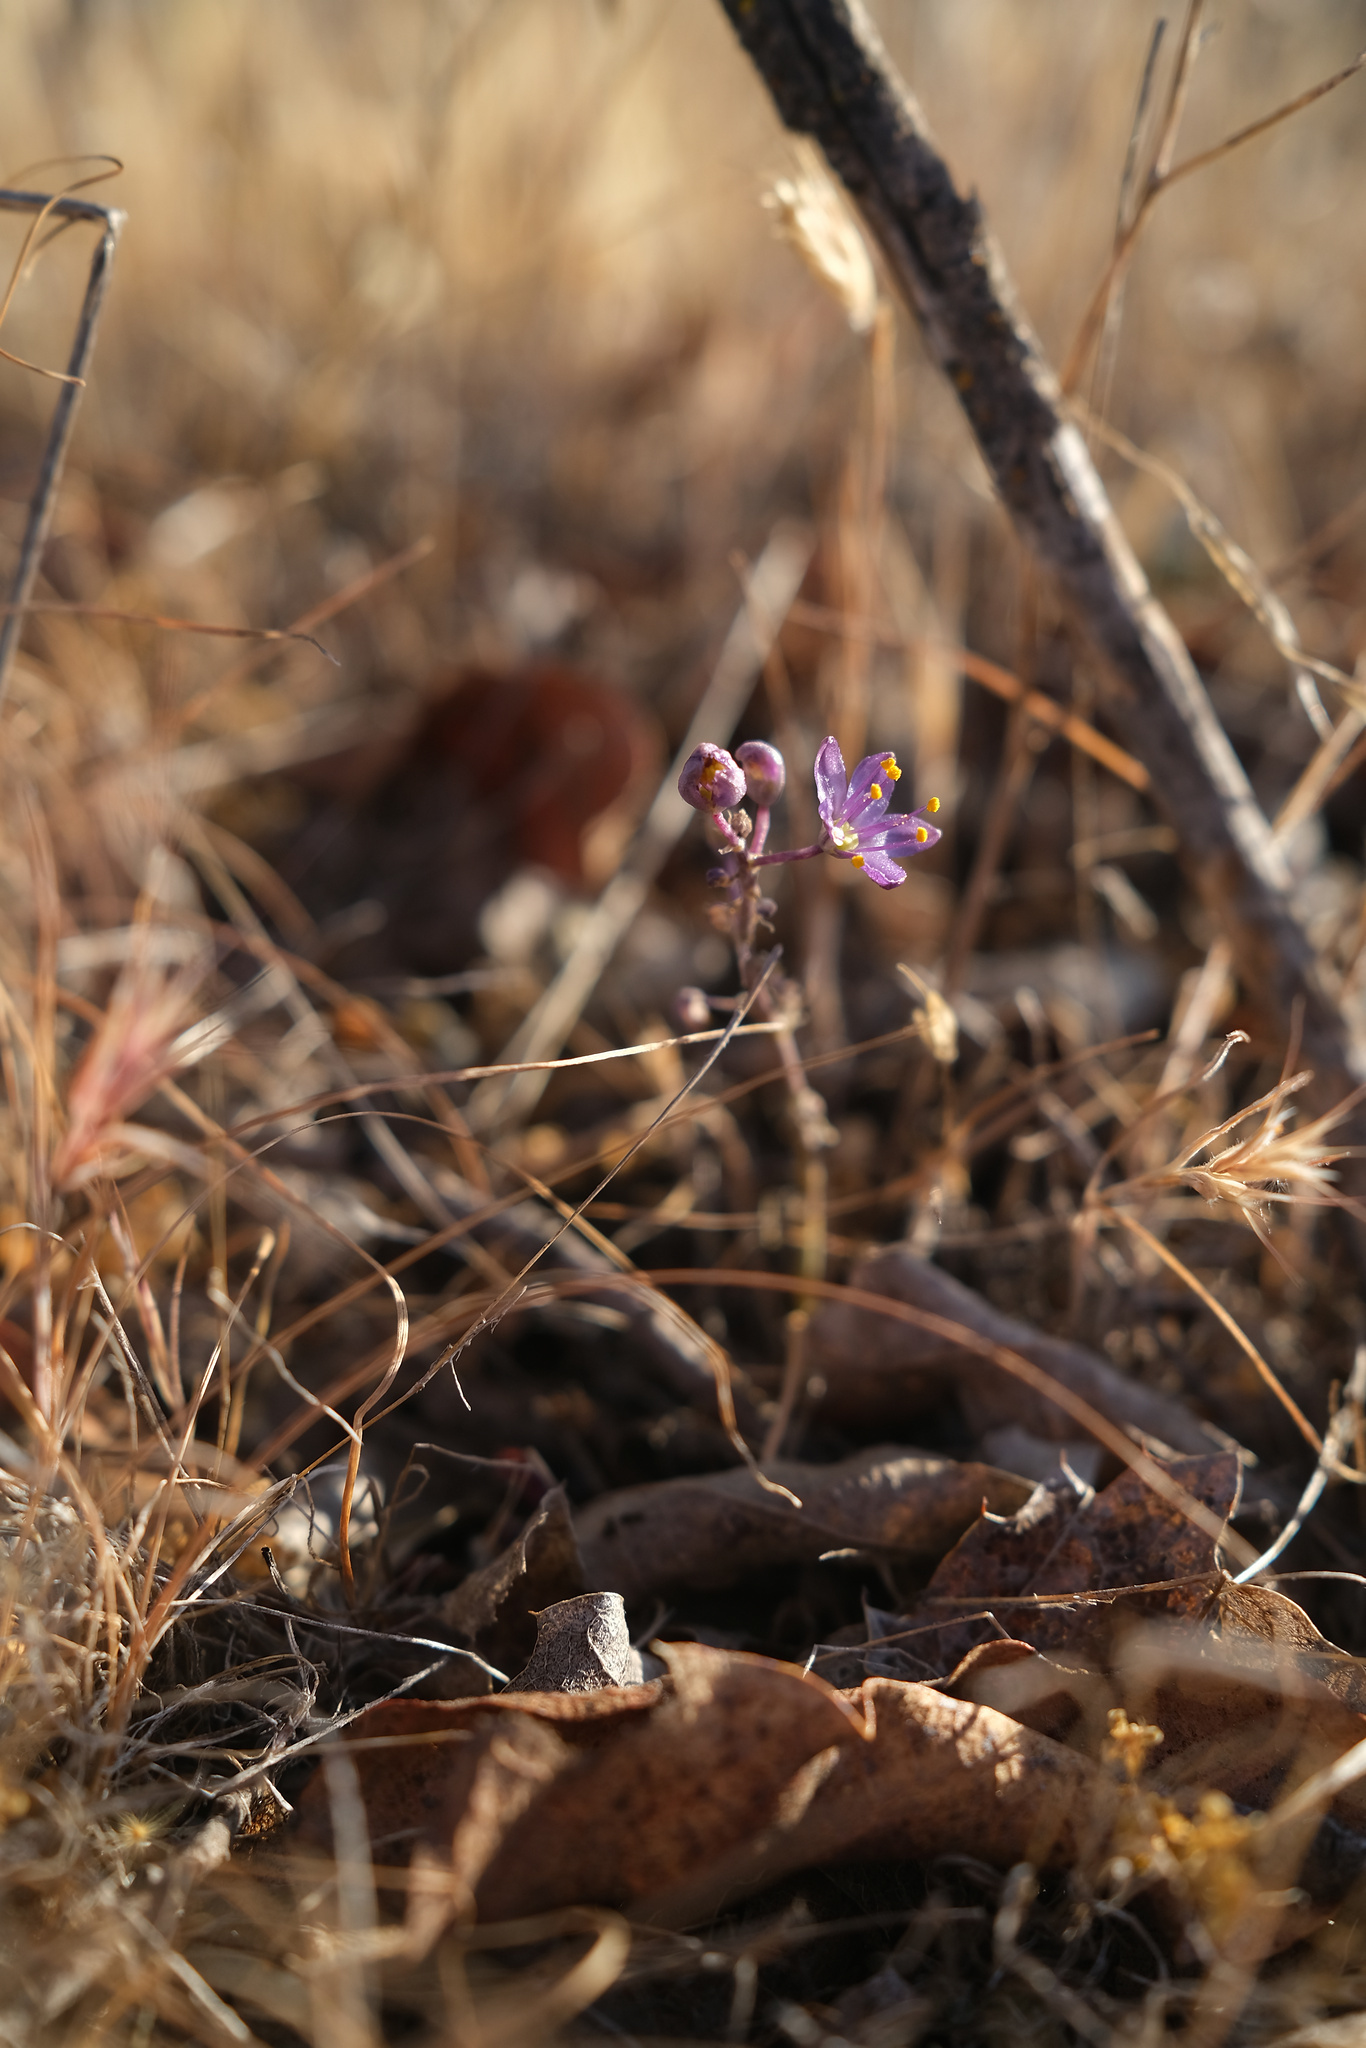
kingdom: Plantae
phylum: Tracheophyta
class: Liliopsida
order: Asparagales
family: Asparagaceae
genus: Hooveria
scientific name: Hooveria purpurea
